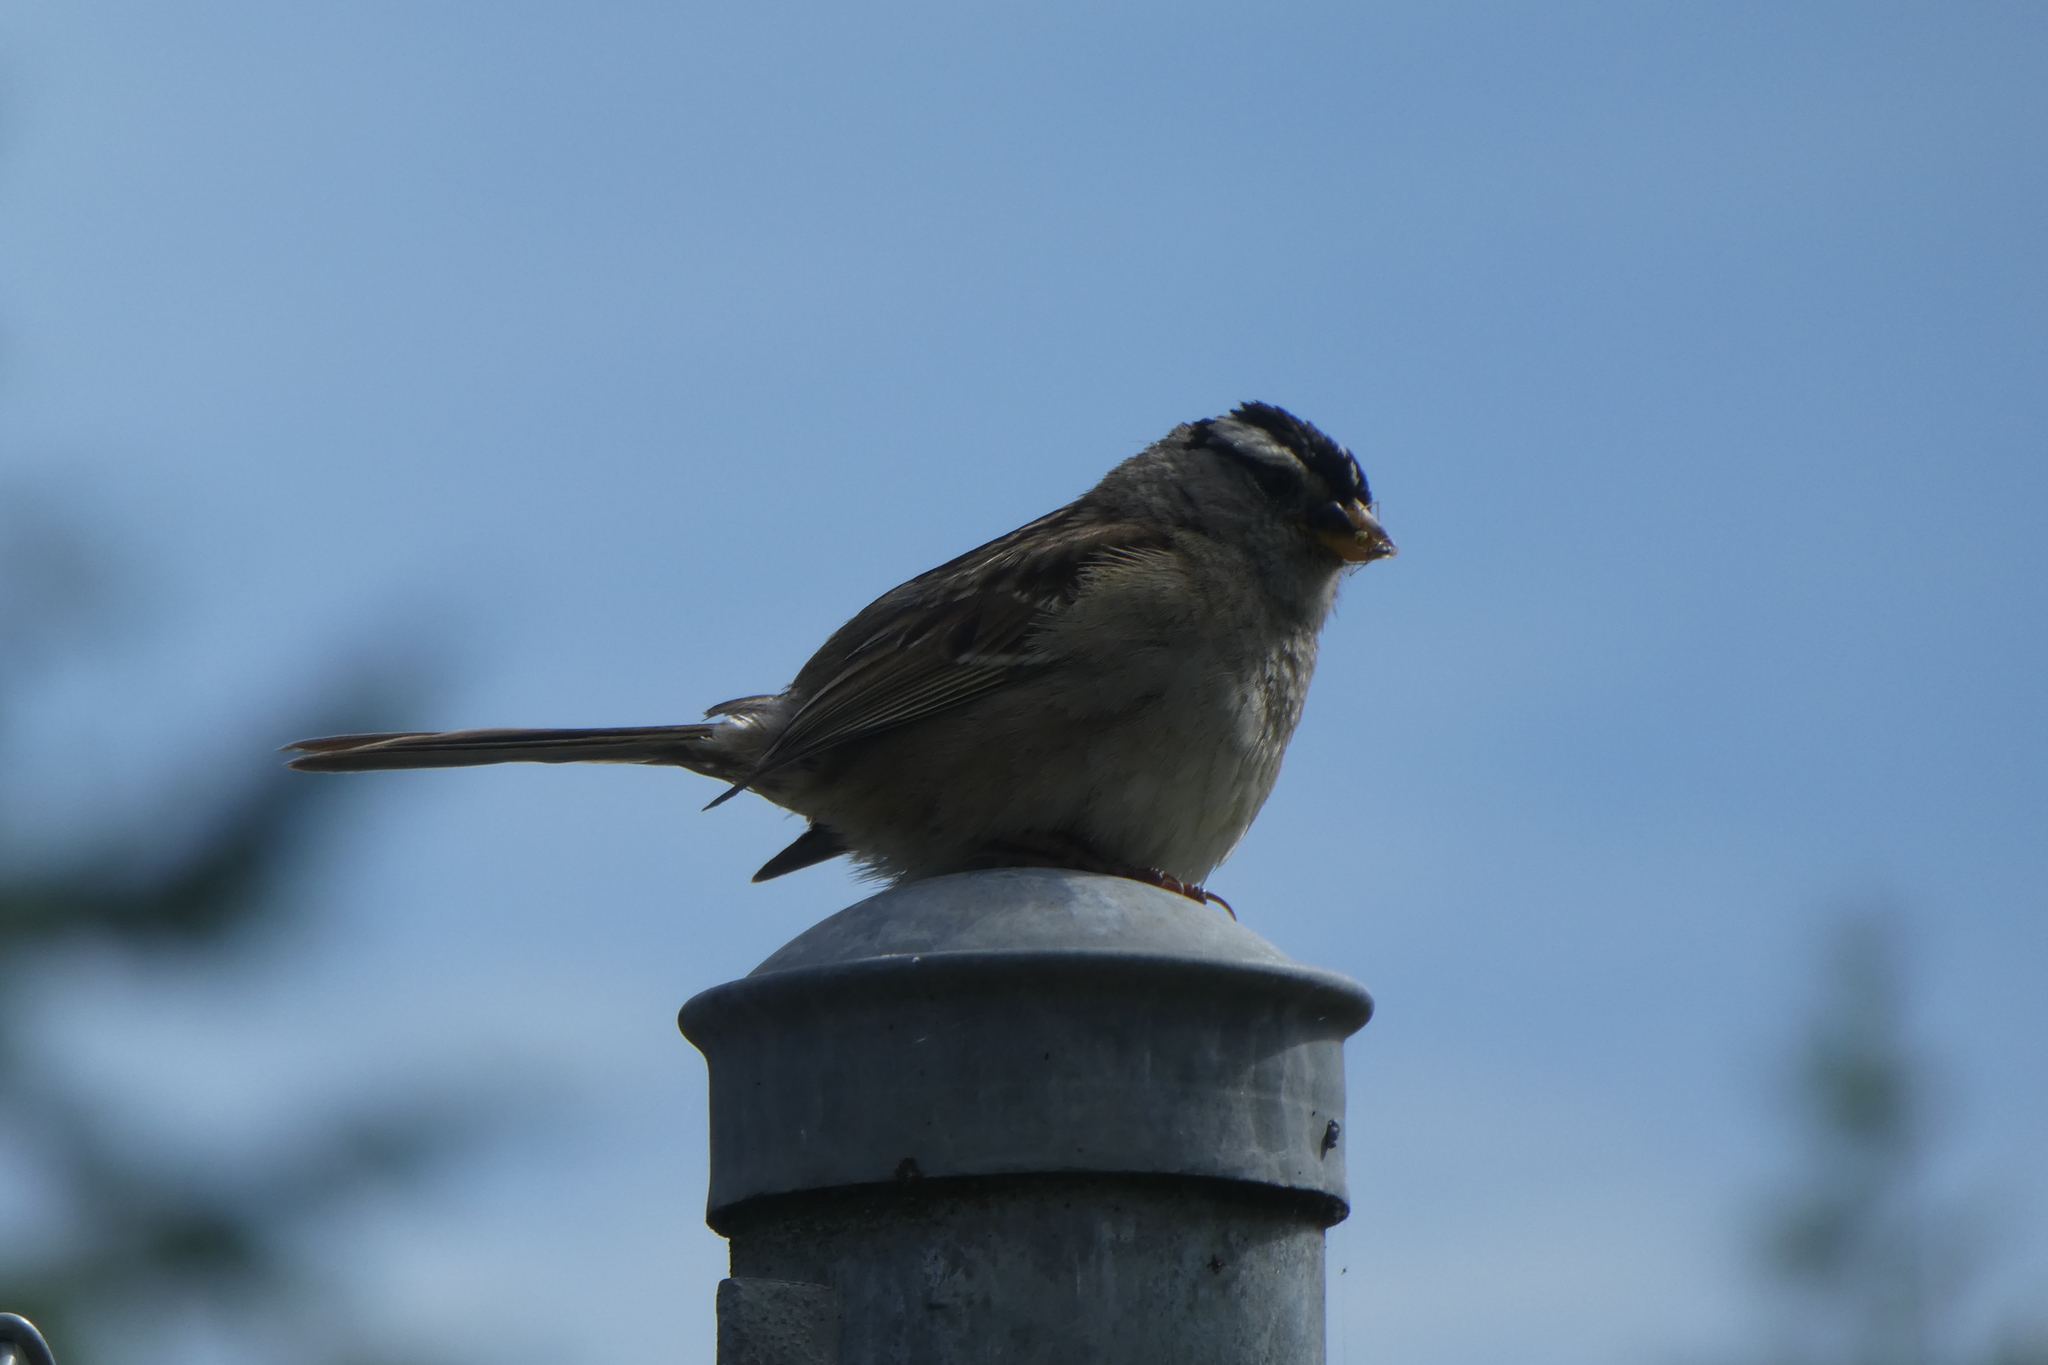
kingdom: Animalia
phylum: Chordata
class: Aves
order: Passeriformes
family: Passerellidae
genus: Zonotrichia
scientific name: Zonotrichia leucophrys
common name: White-crowned sparrow
